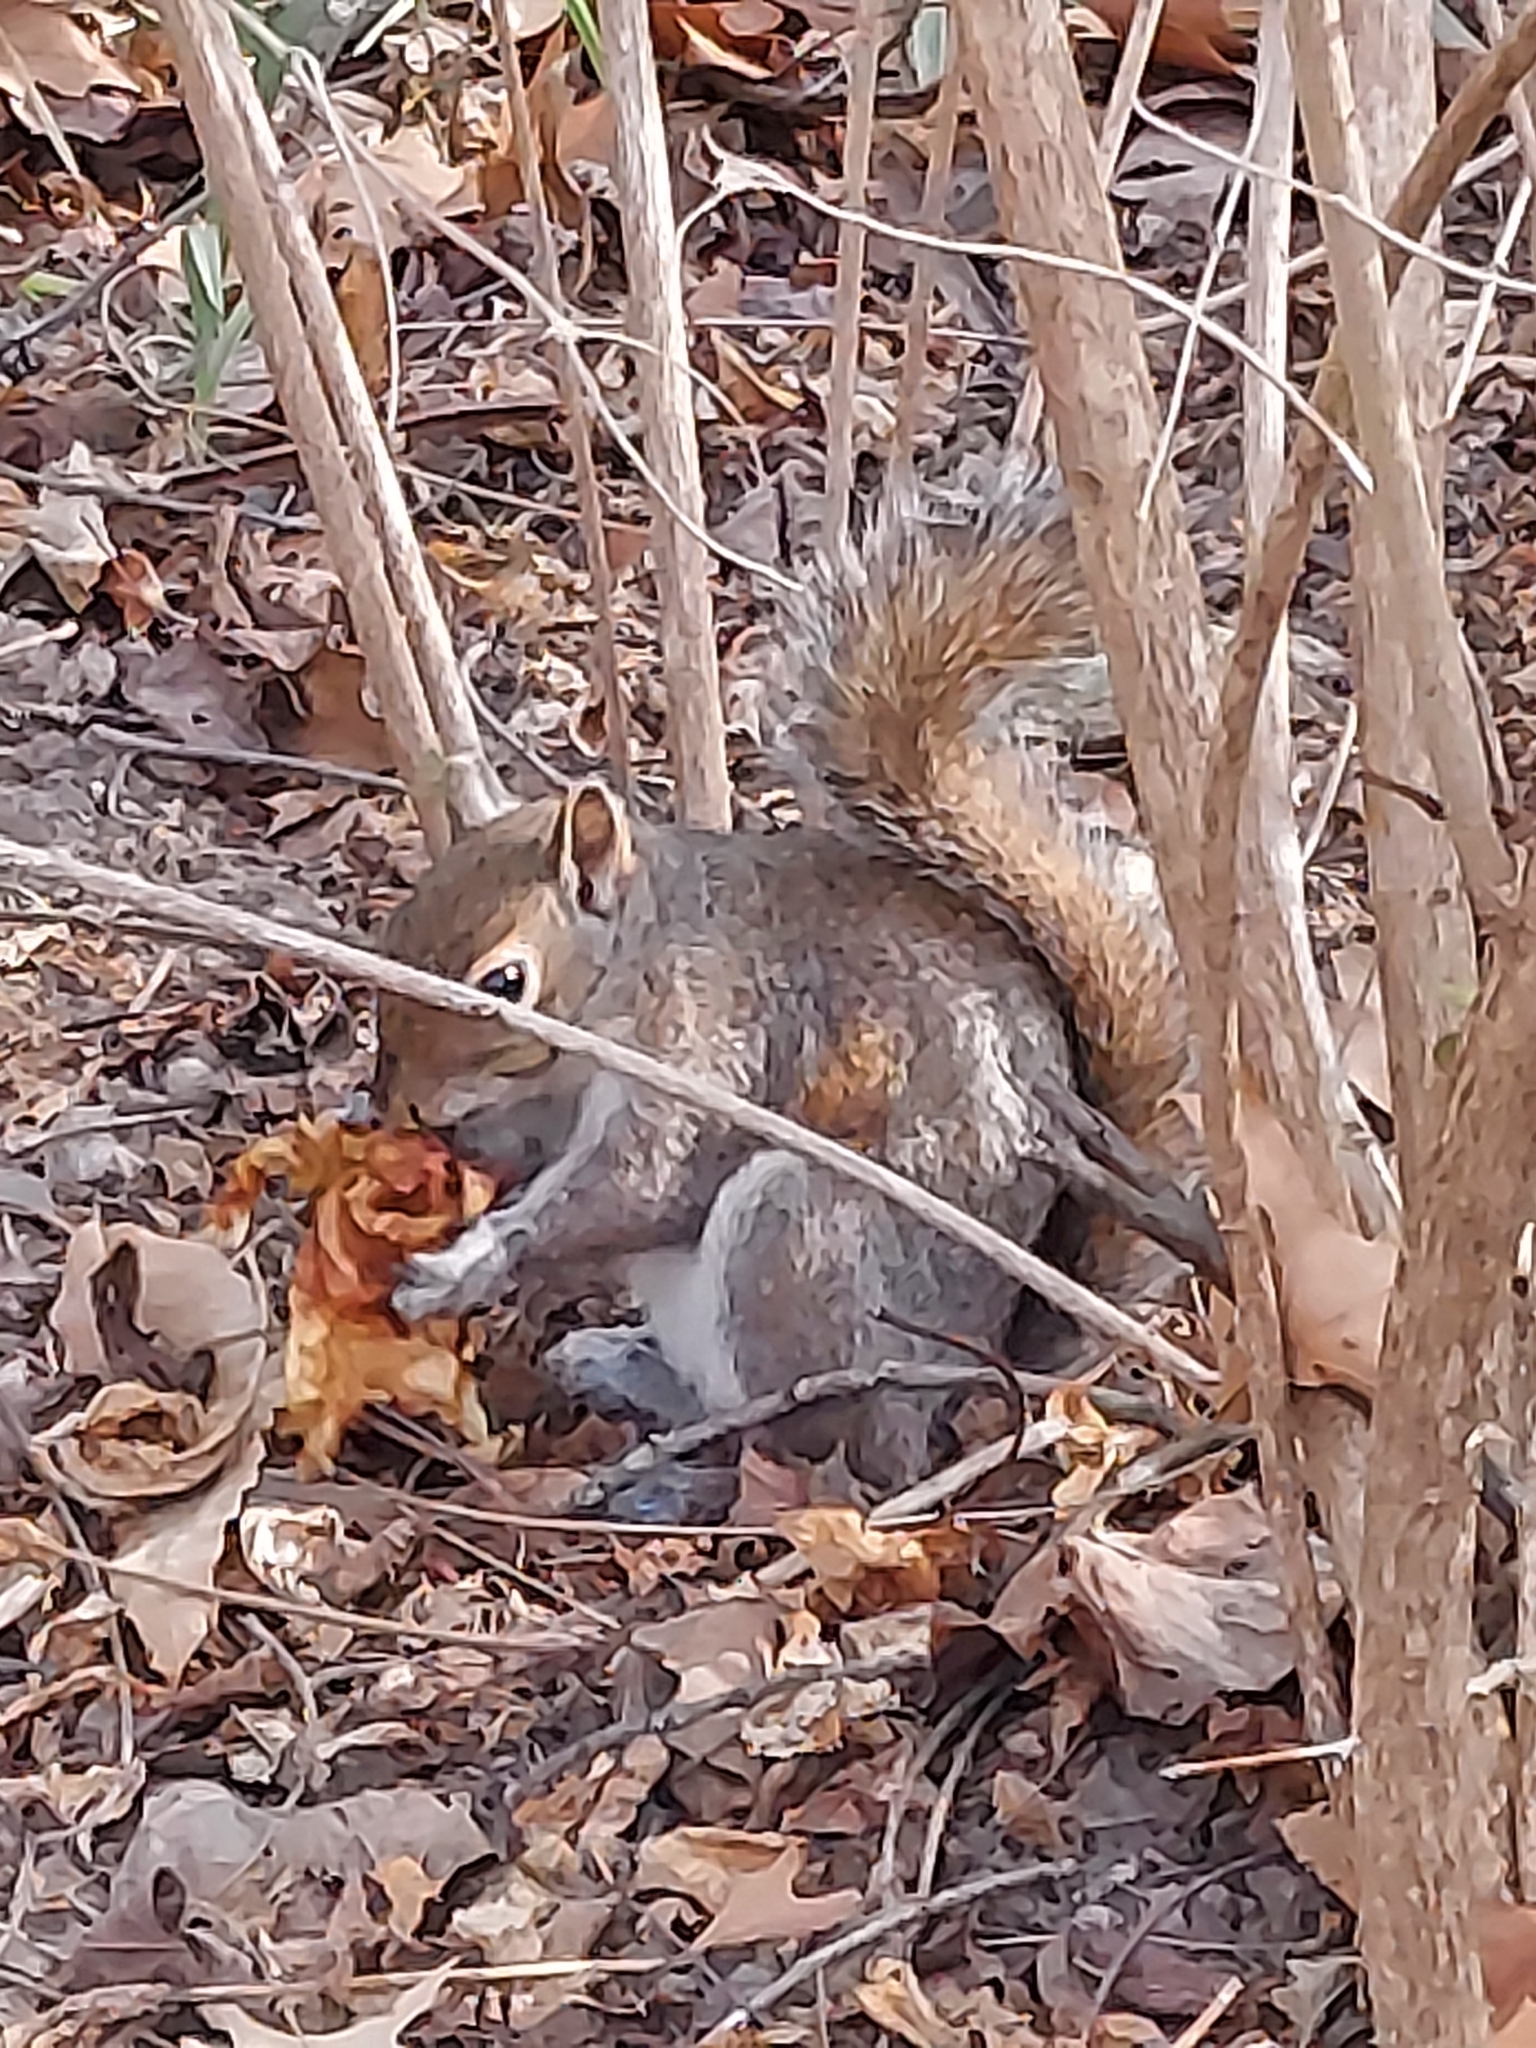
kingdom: Animalia
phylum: Chordata
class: Mammalia
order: Rodentia
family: Sciuridae
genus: Sciurus
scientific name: Sciurus carolinensis
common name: Eastern gray squirrel
